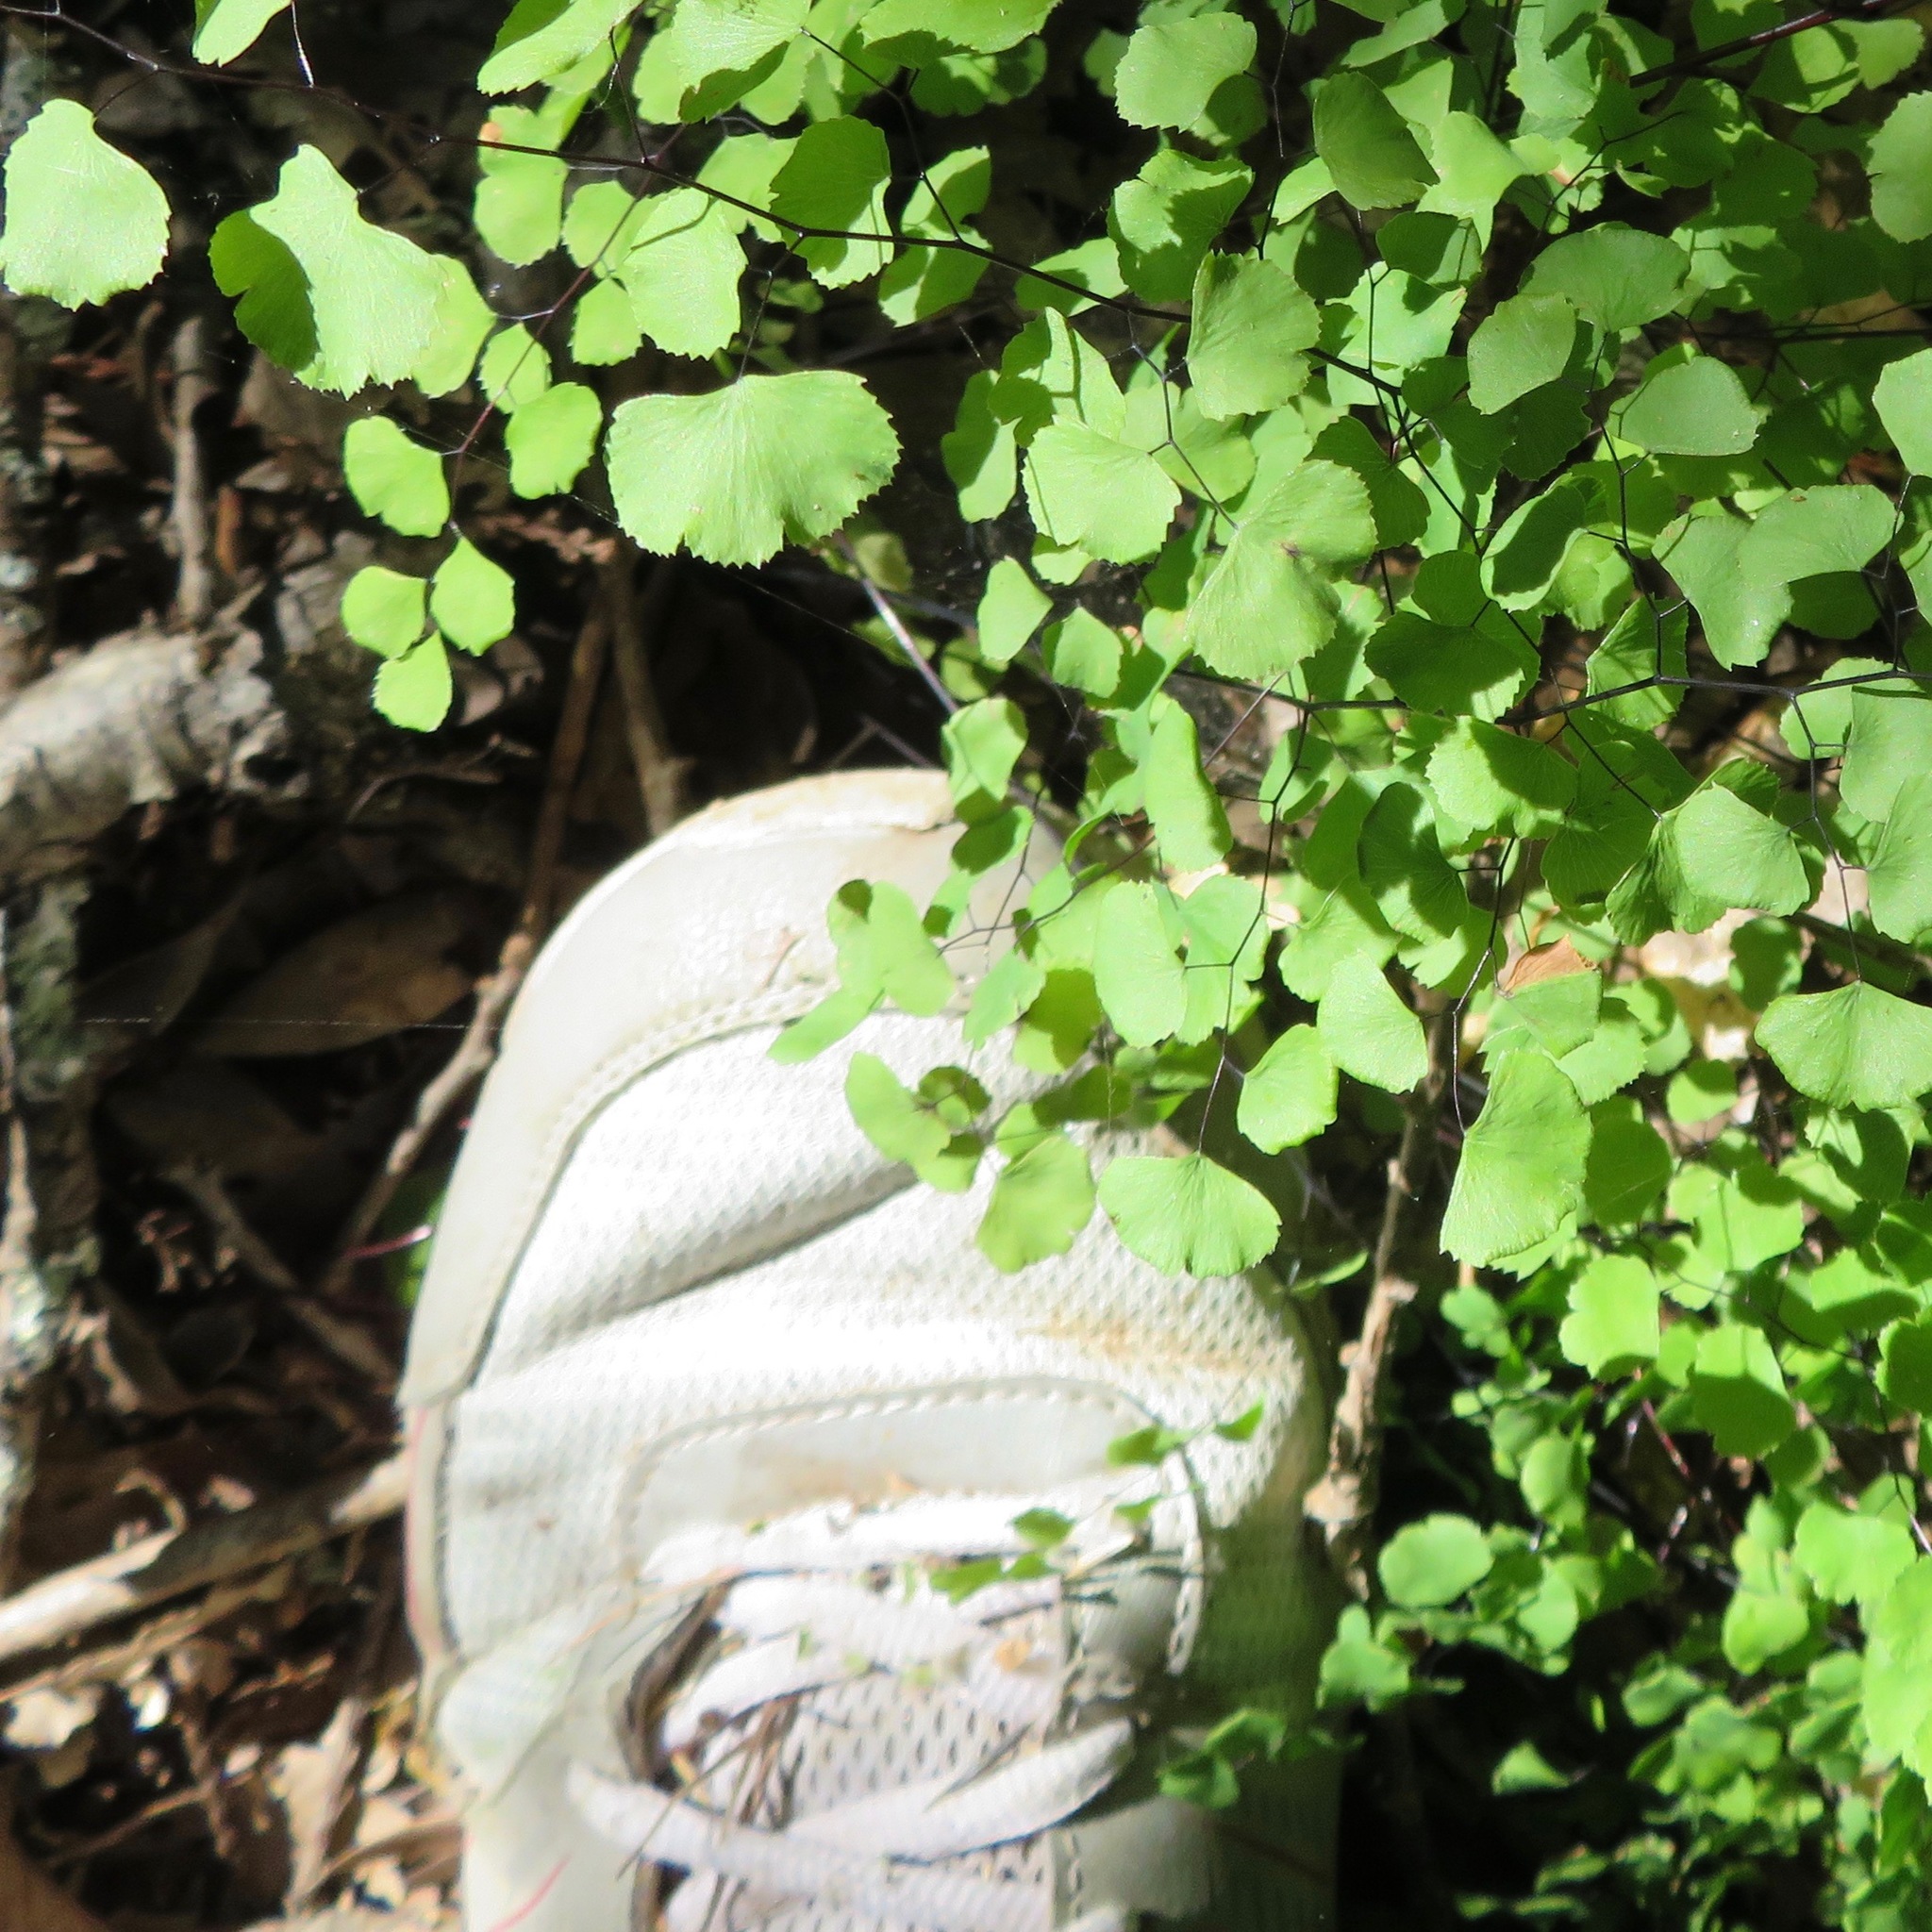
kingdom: Plantae
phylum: Tracheophyta
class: Polypodiopsida
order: Polypodiales
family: Pteridaceae
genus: Adiantum
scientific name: Adiantum jordanii
